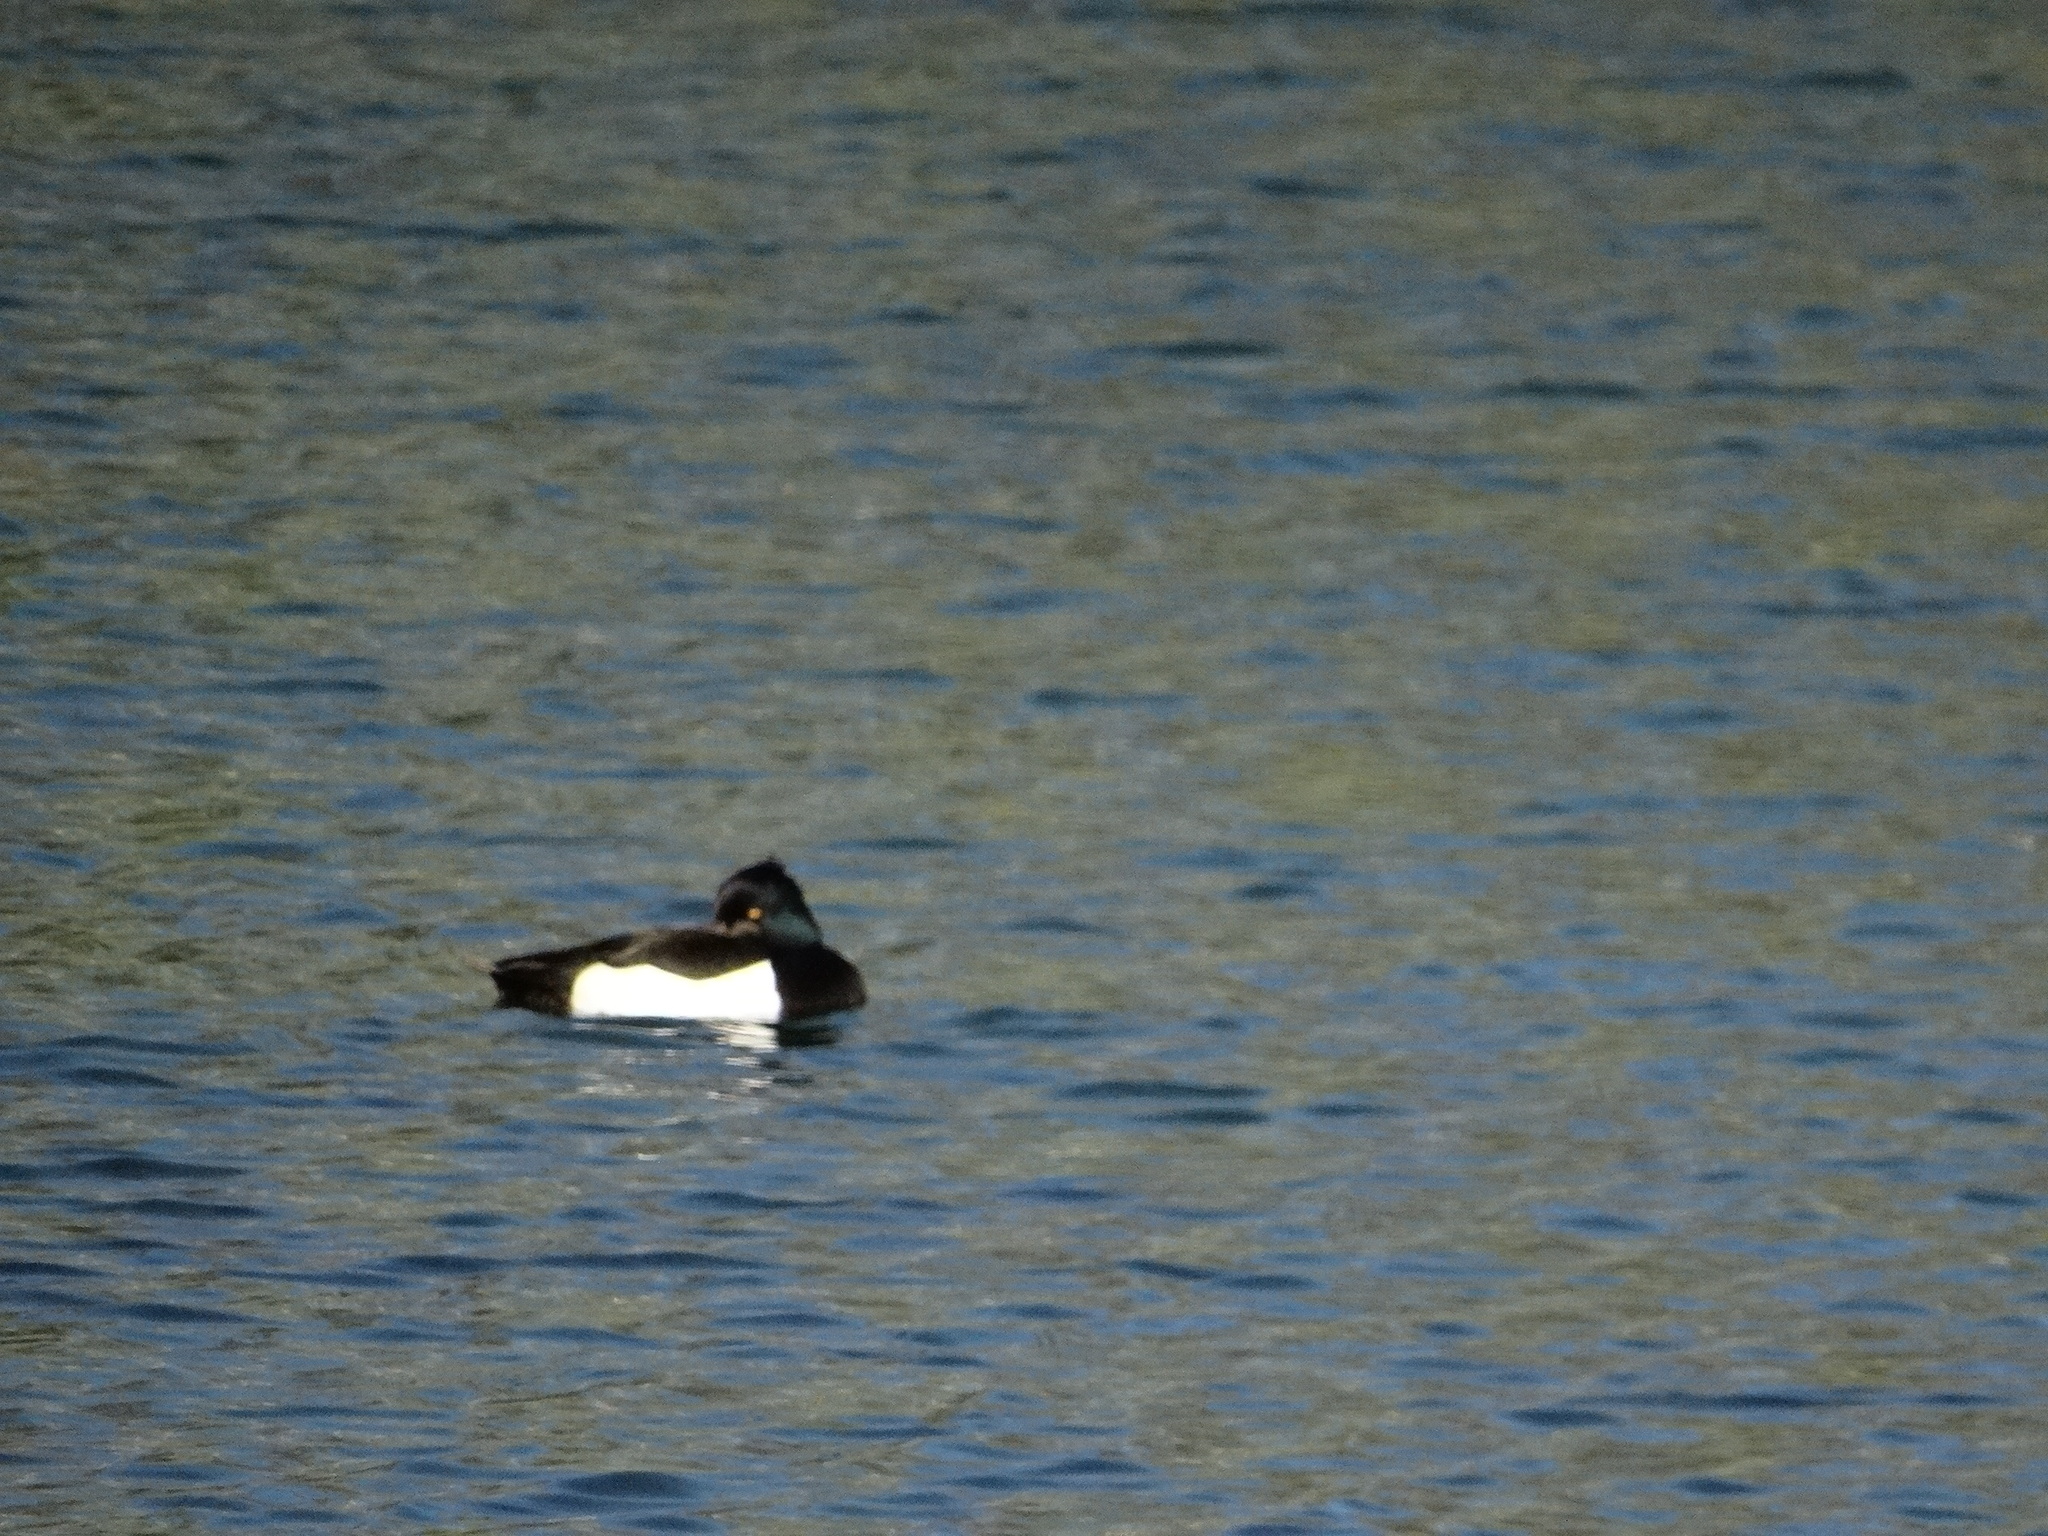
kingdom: Animalia
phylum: Chordata
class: Aves
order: Anseriformes
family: Anatidae
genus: Aythya
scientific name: Aythya fuligula
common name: Tufted duck
